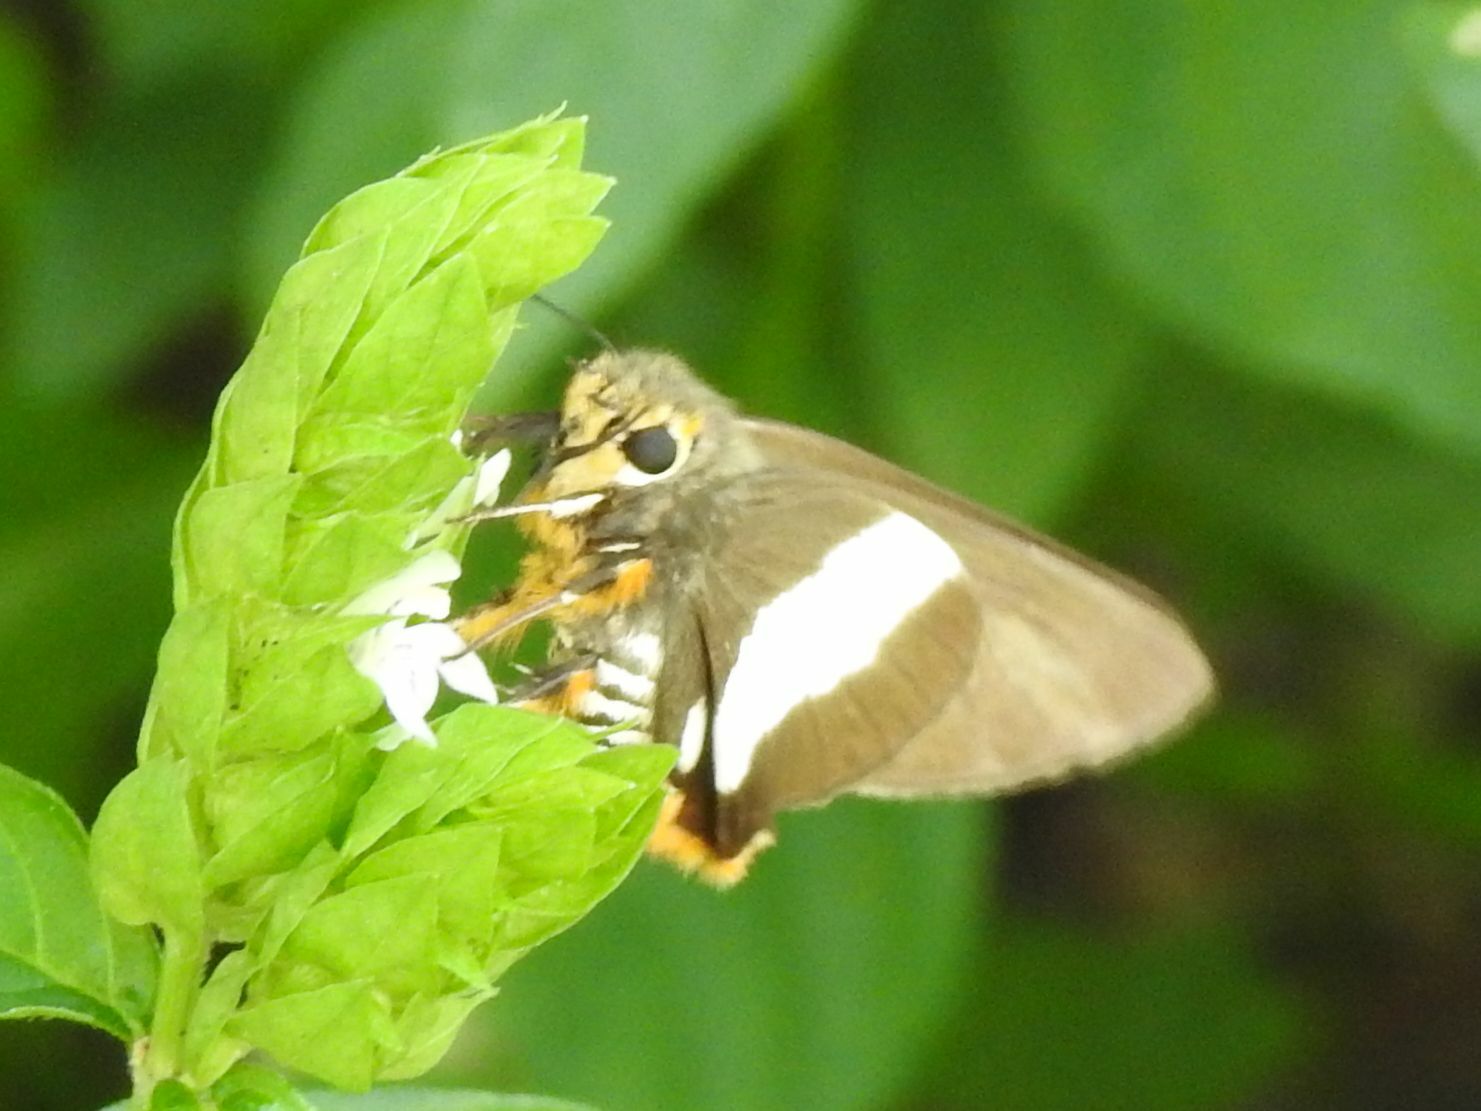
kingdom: Animalia
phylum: Arthropoda
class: Insecta
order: Lepidoptera
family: Hesperiidae
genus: Coeliades
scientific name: Coeliades forestan
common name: Striped policeman
